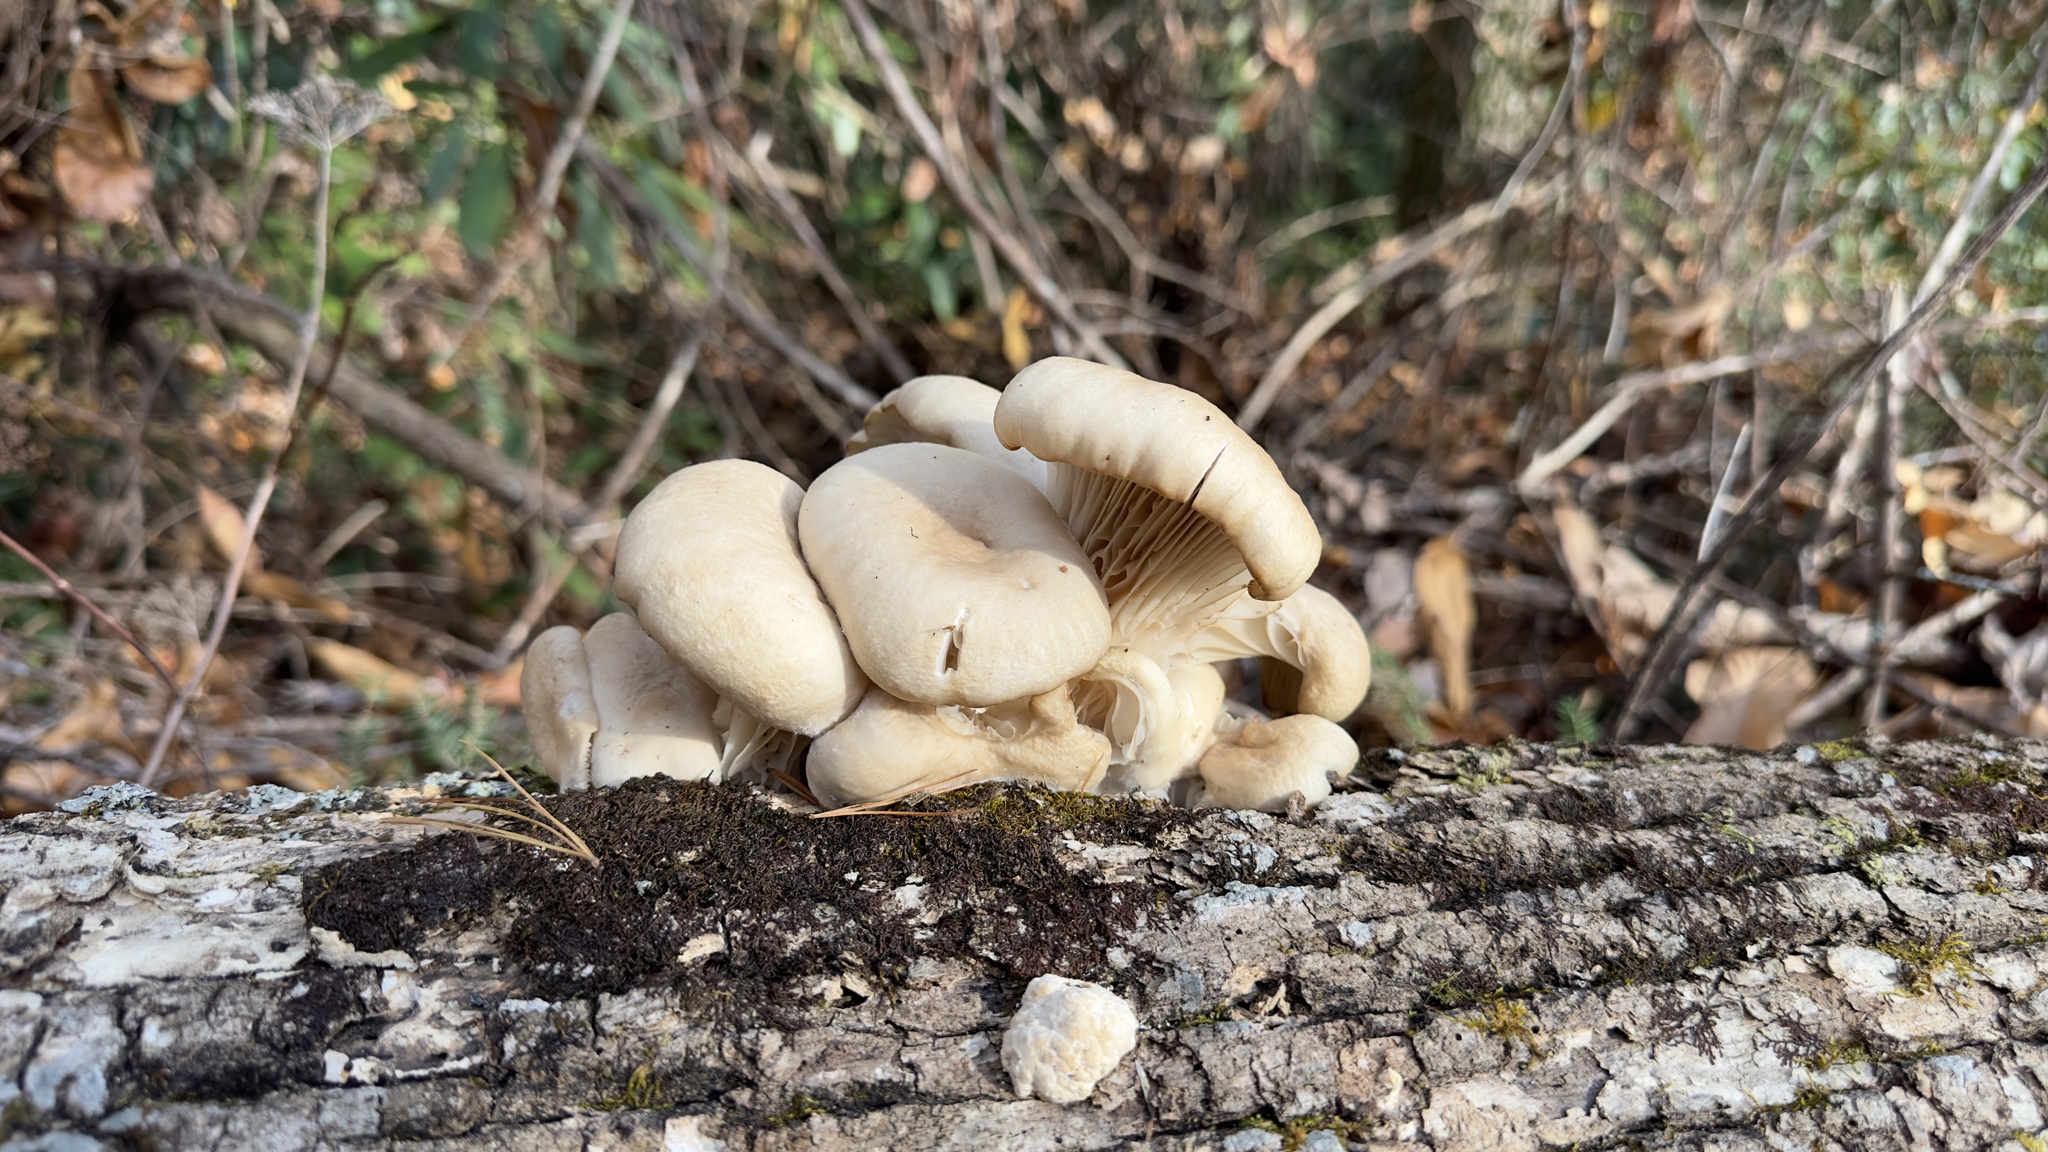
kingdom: Fungi
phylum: Basidiomycota
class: Agaricomycetes
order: Agaricales
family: Pleurotaceae
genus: Pleurotus
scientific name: Pleurotus ostreatus
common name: Oyster mushroom
